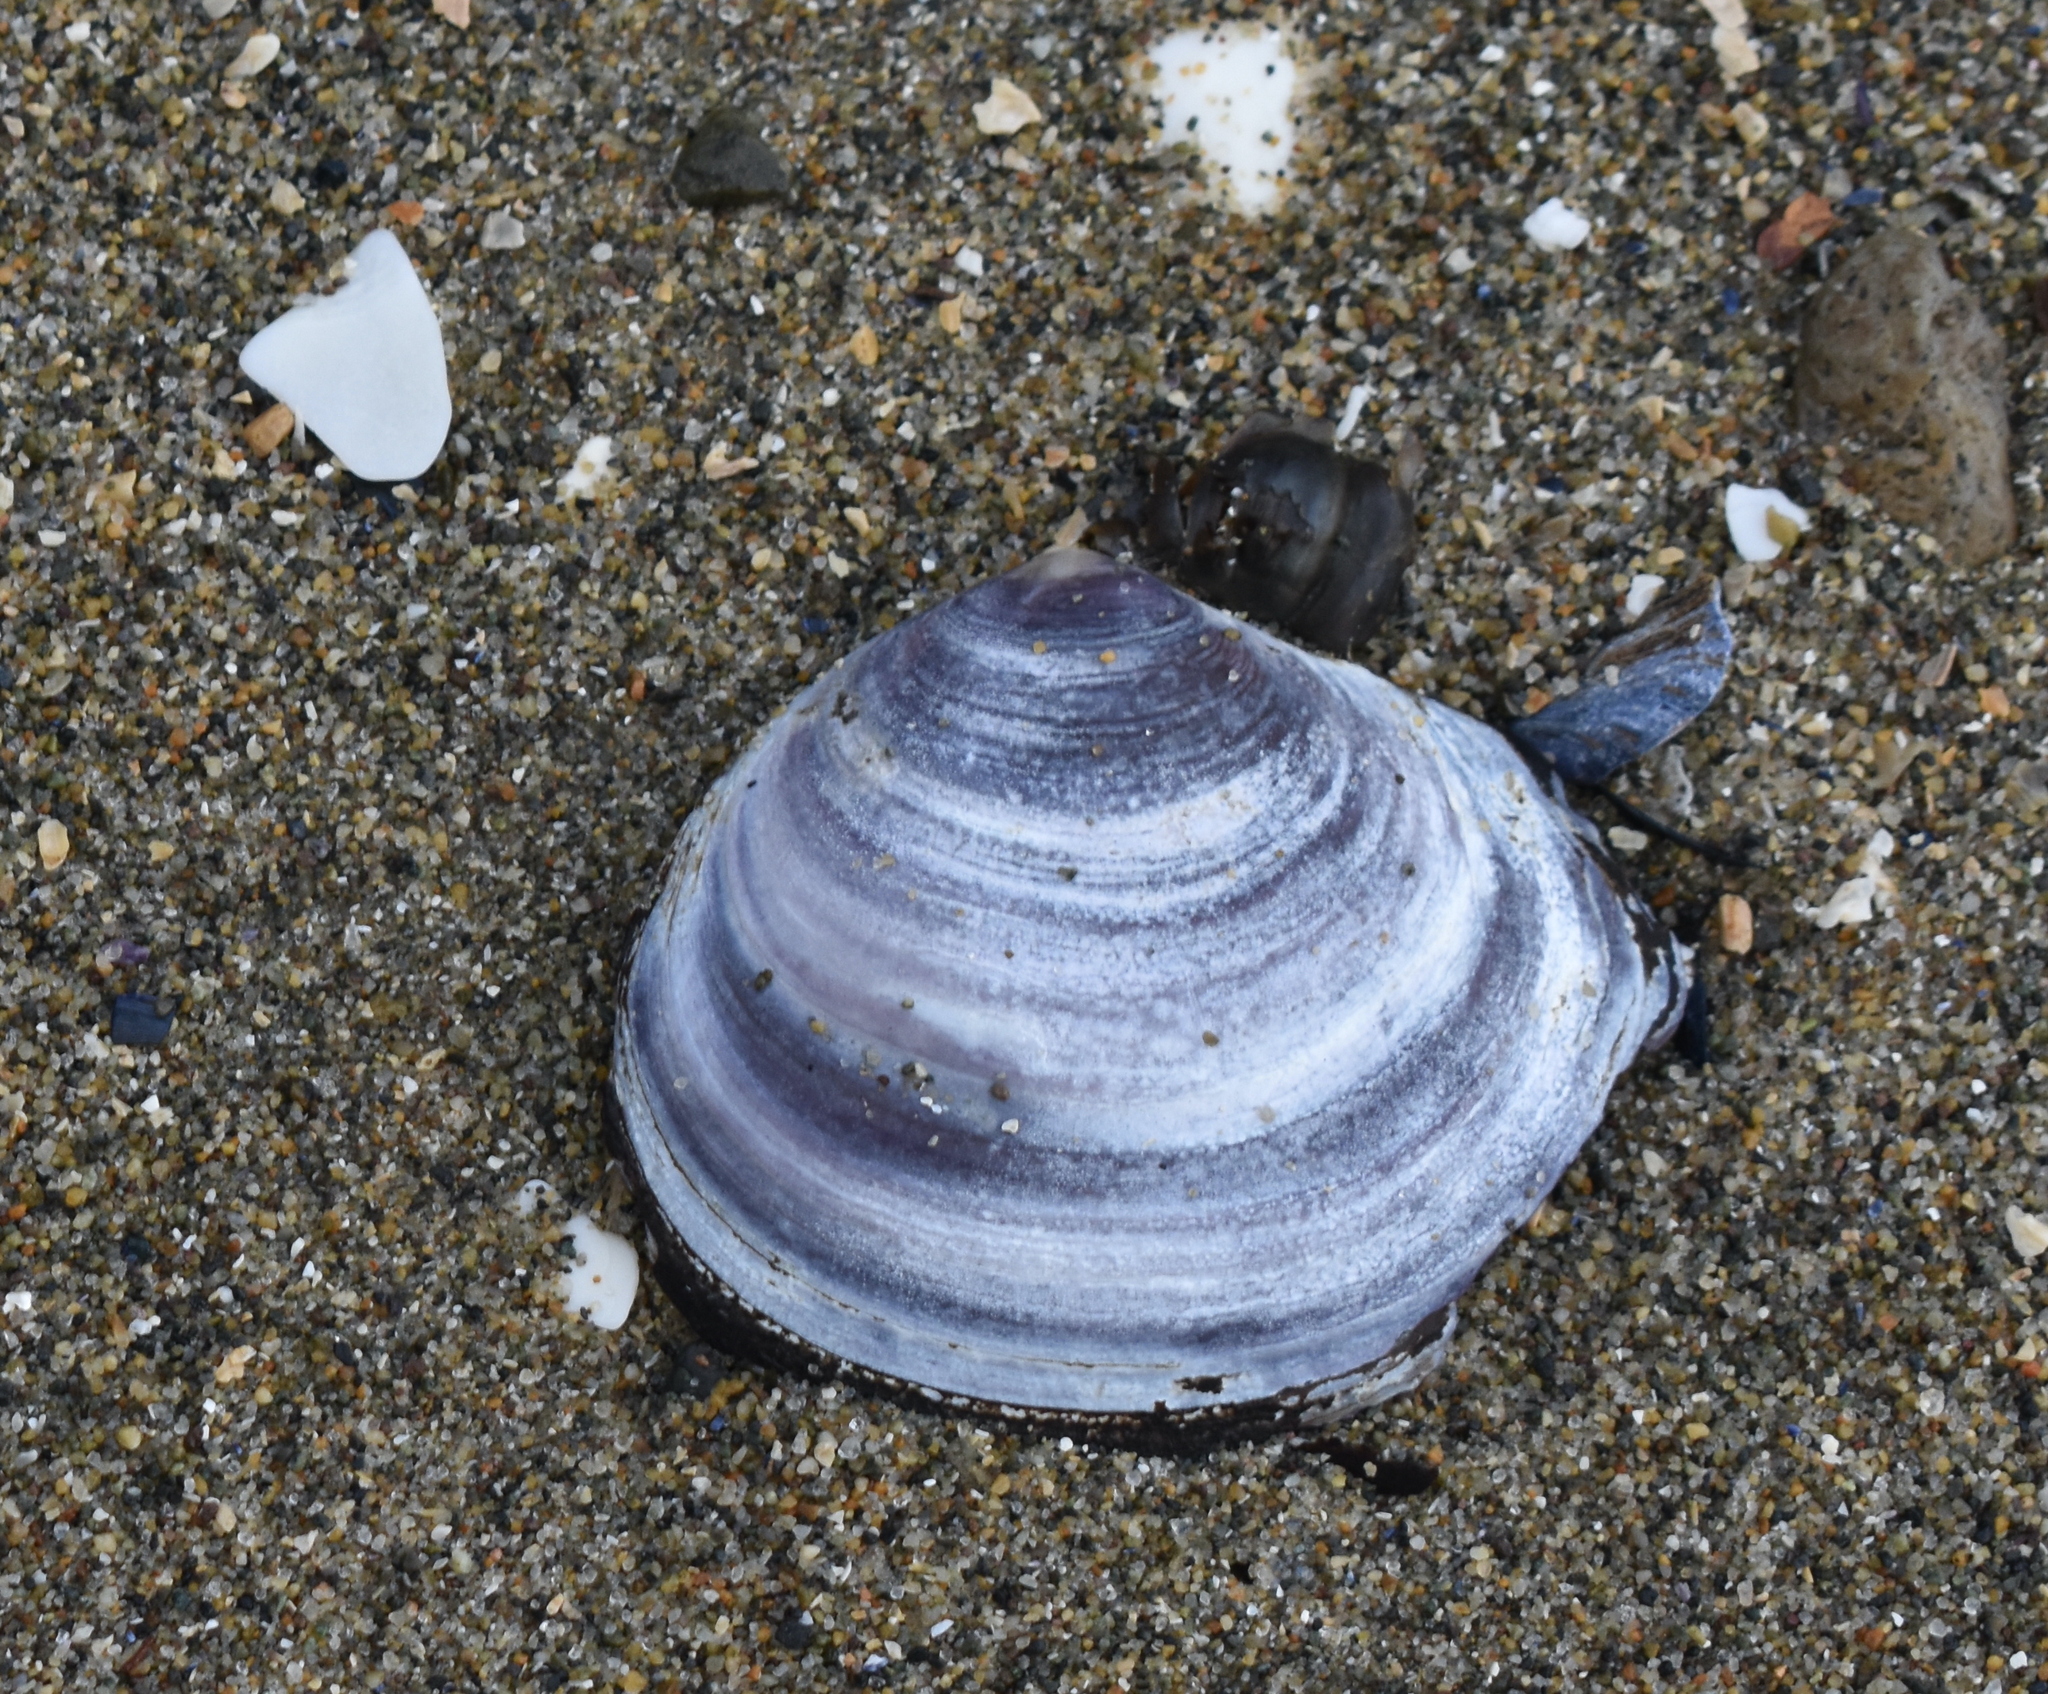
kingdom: Animalia
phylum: Mollusca
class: Bivalvia
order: Cardiida
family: Psammobiidae
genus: Nuttallia
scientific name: Nuttallia obscurata
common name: Purple mahogany-clam
